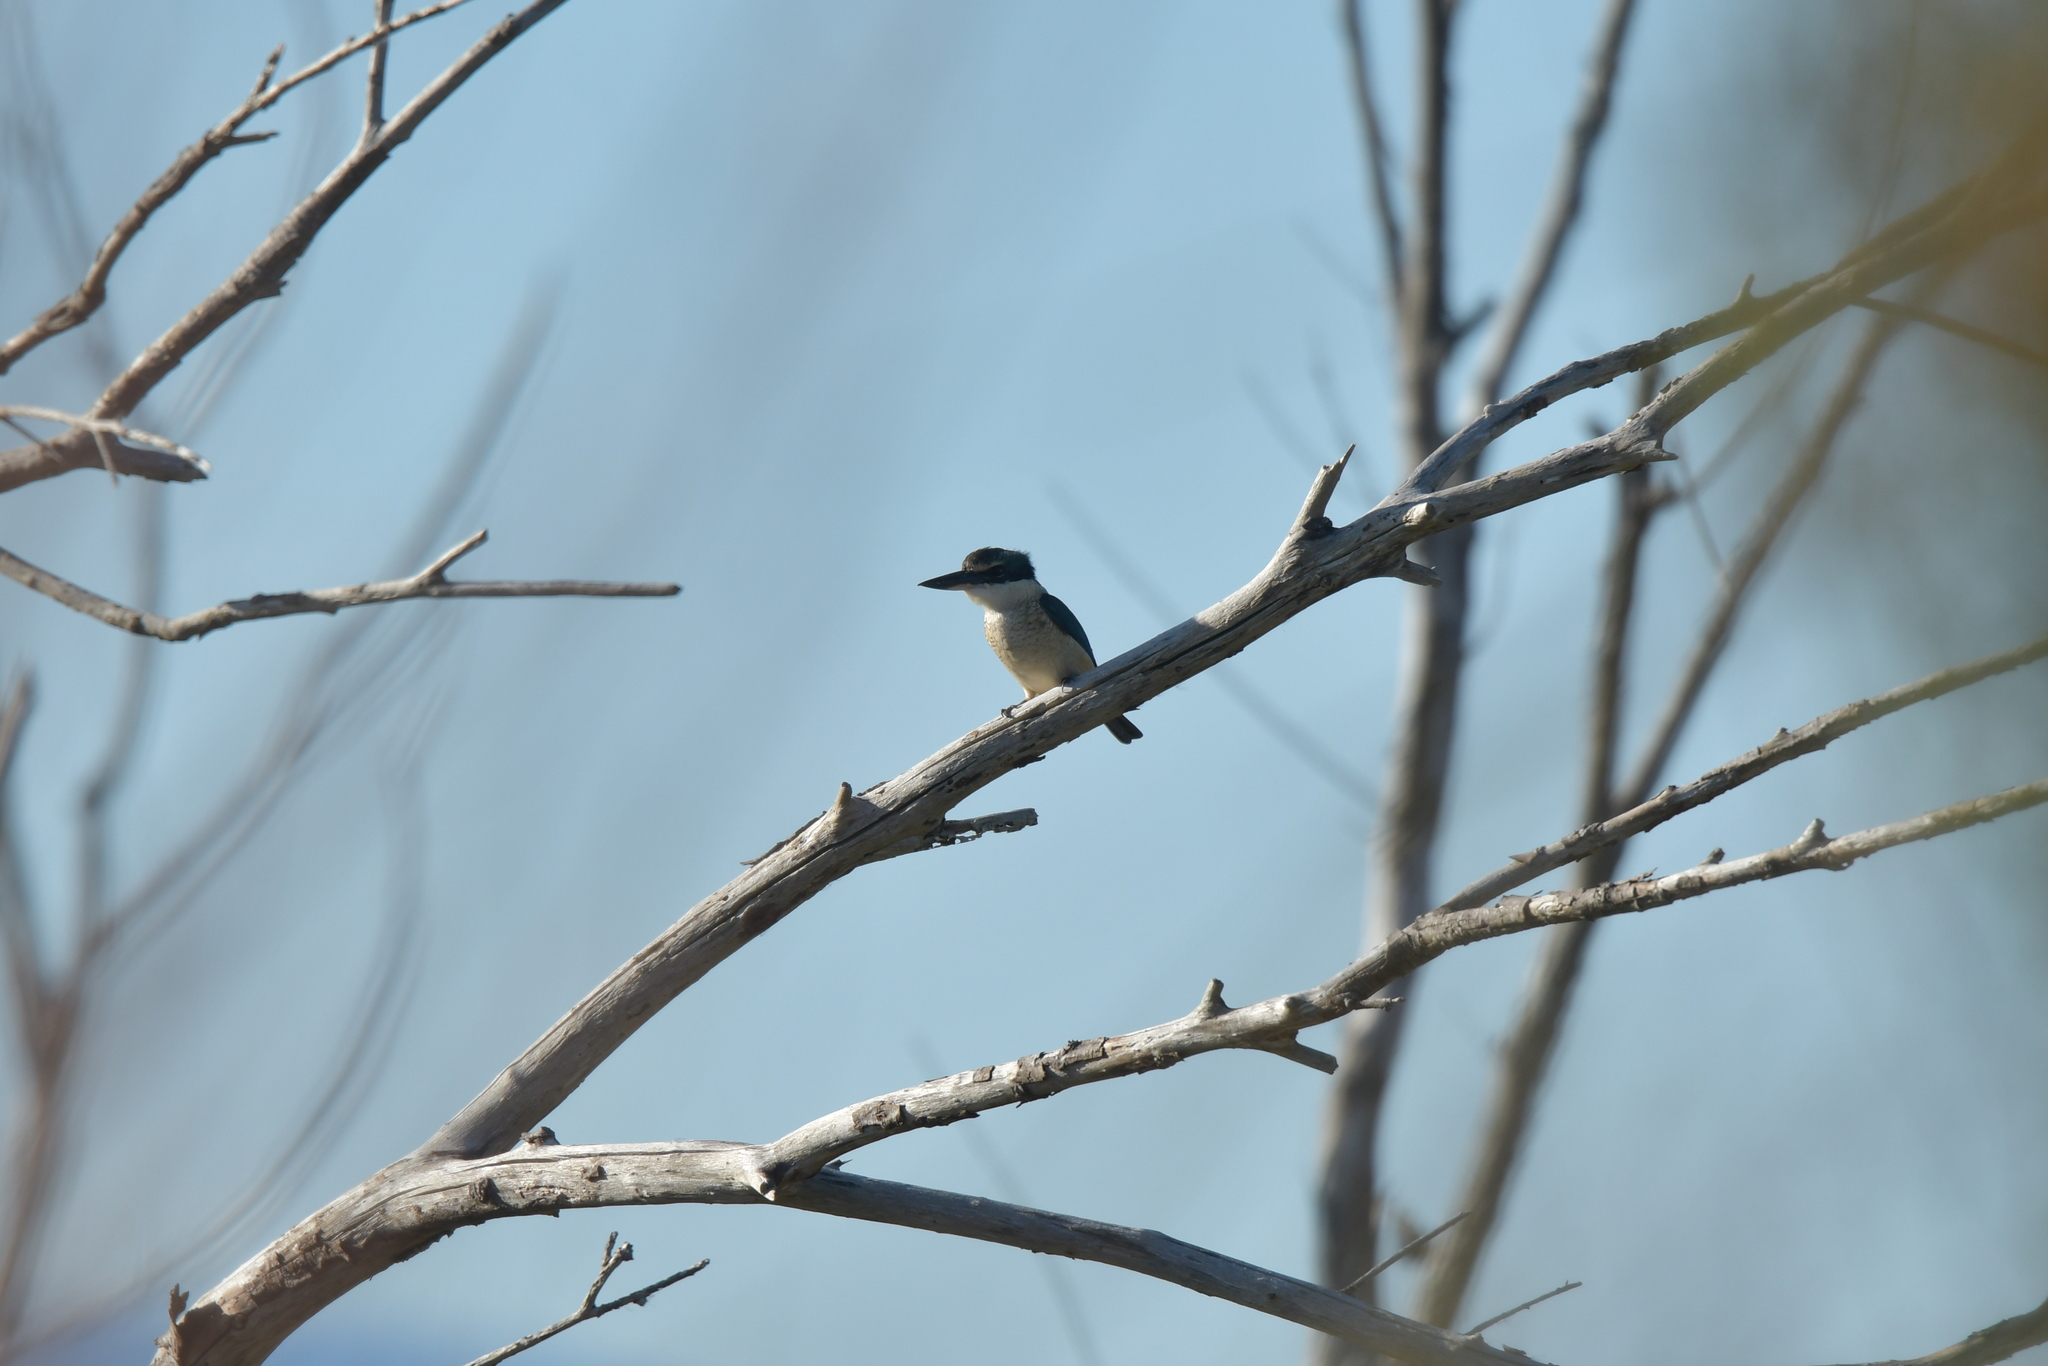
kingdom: Animalia
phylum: Chordata
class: Aves
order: Coraciiformes
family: Alcedinidae
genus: Todiramphus
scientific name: Todiramphus sanctus
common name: Sacred kingfisher
